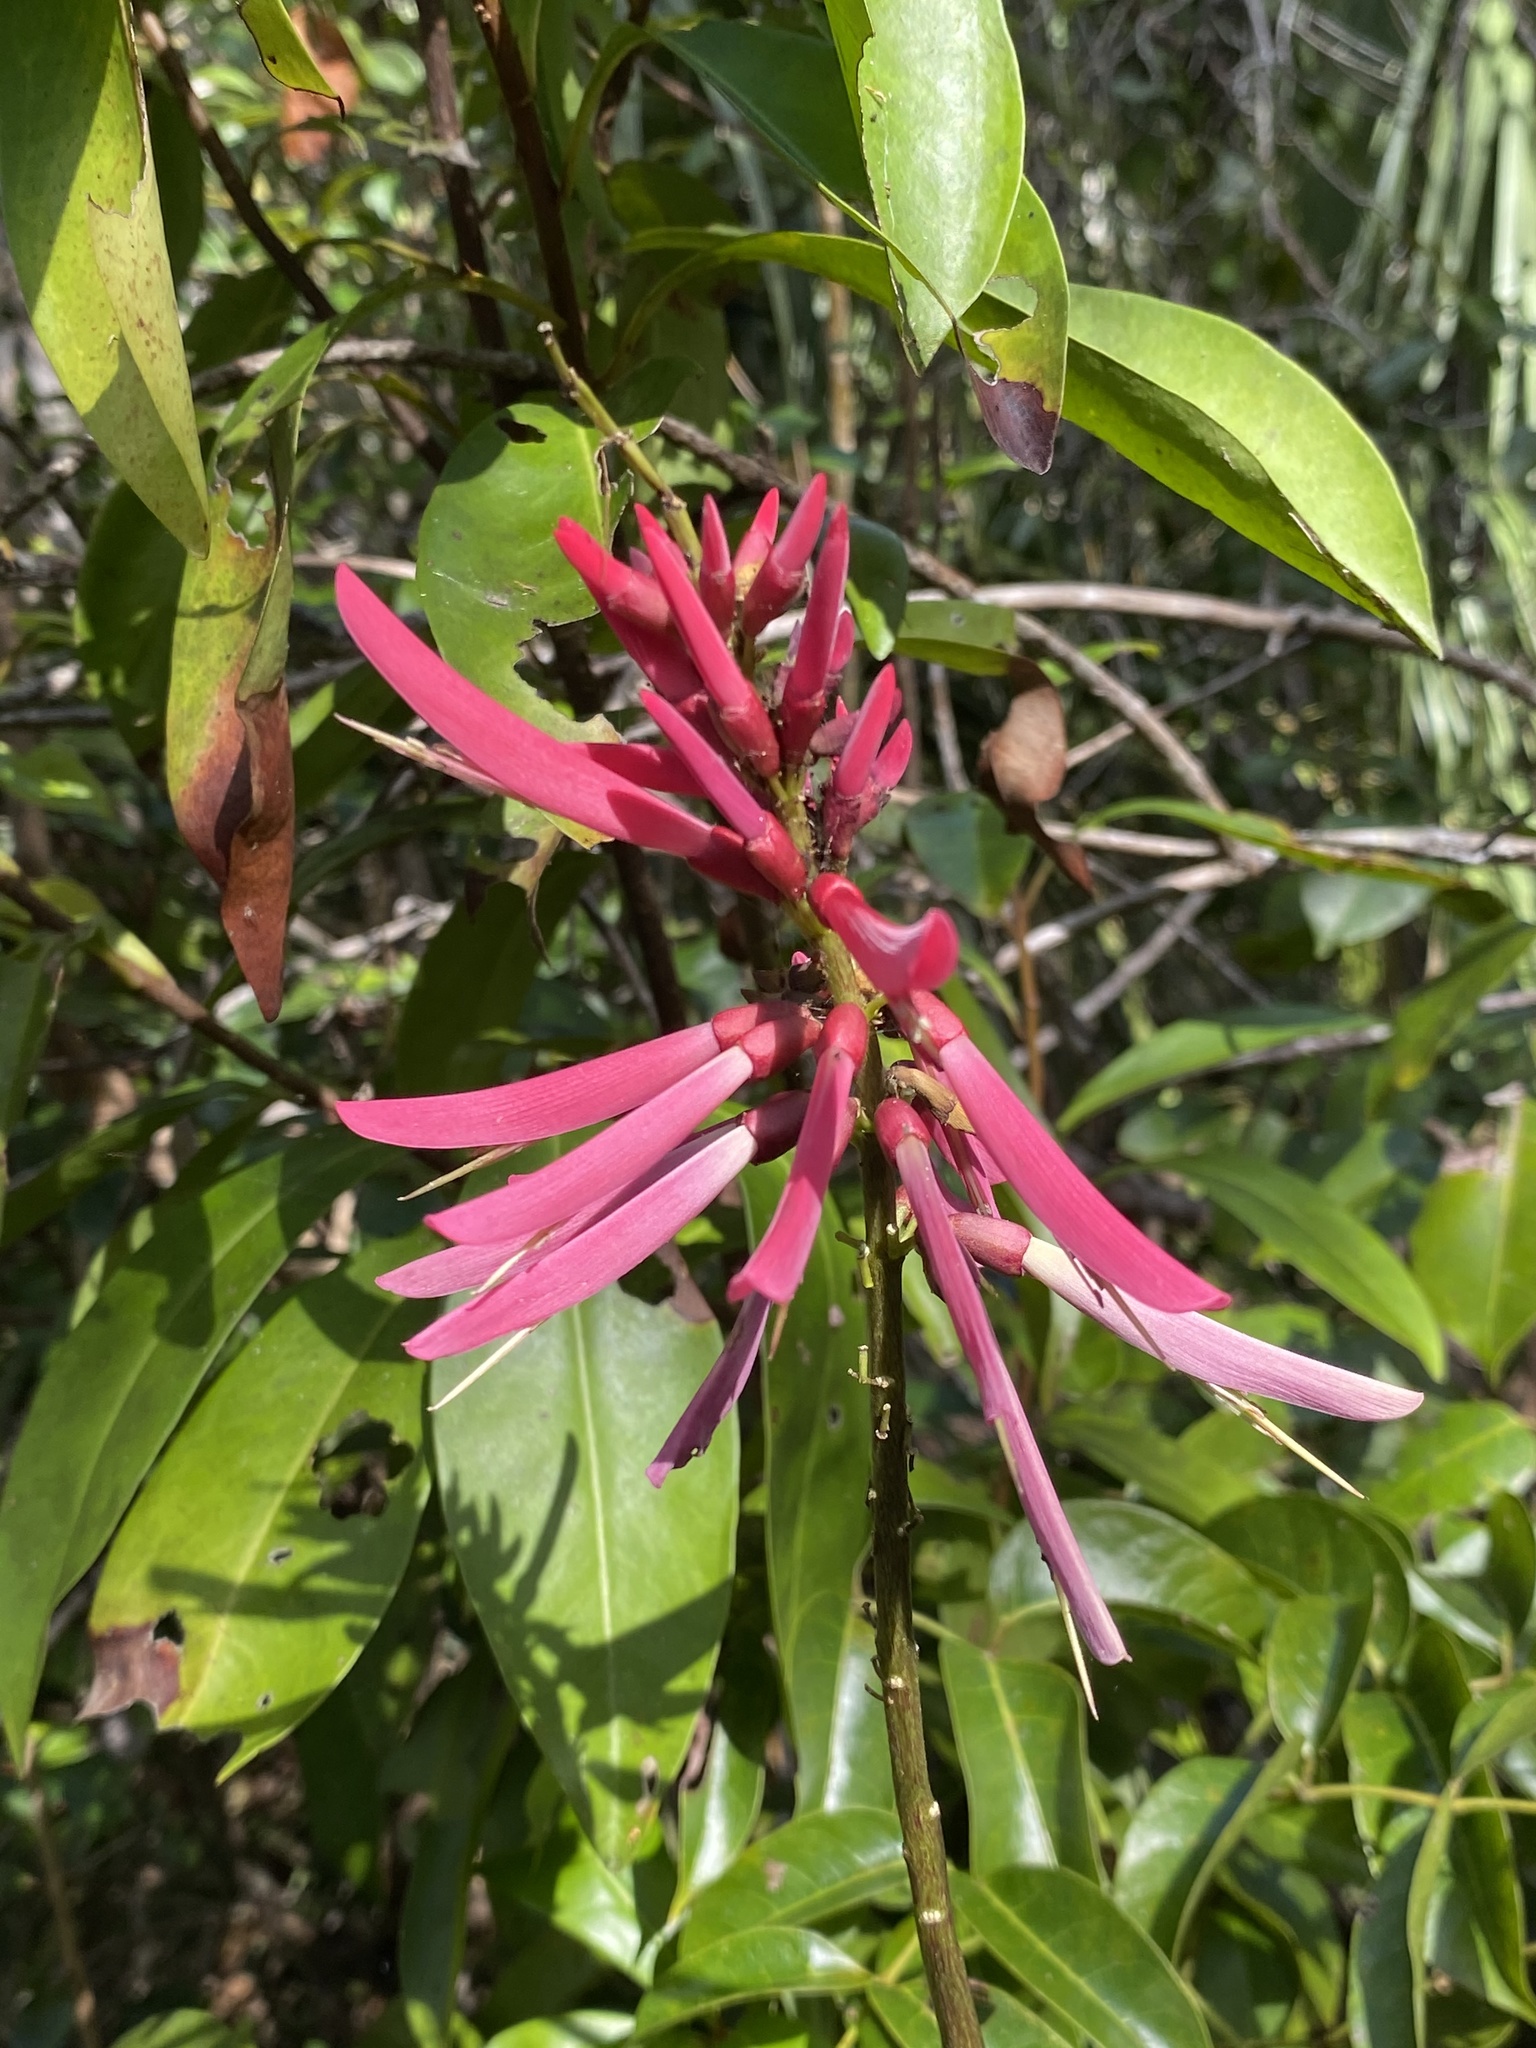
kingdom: Plantae
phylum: Tracheophyta
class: Magnoliopsida
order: Fabales
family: Fabaceae
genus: Erythrina
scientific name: Erythrina herbacea
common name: Coral-bean
